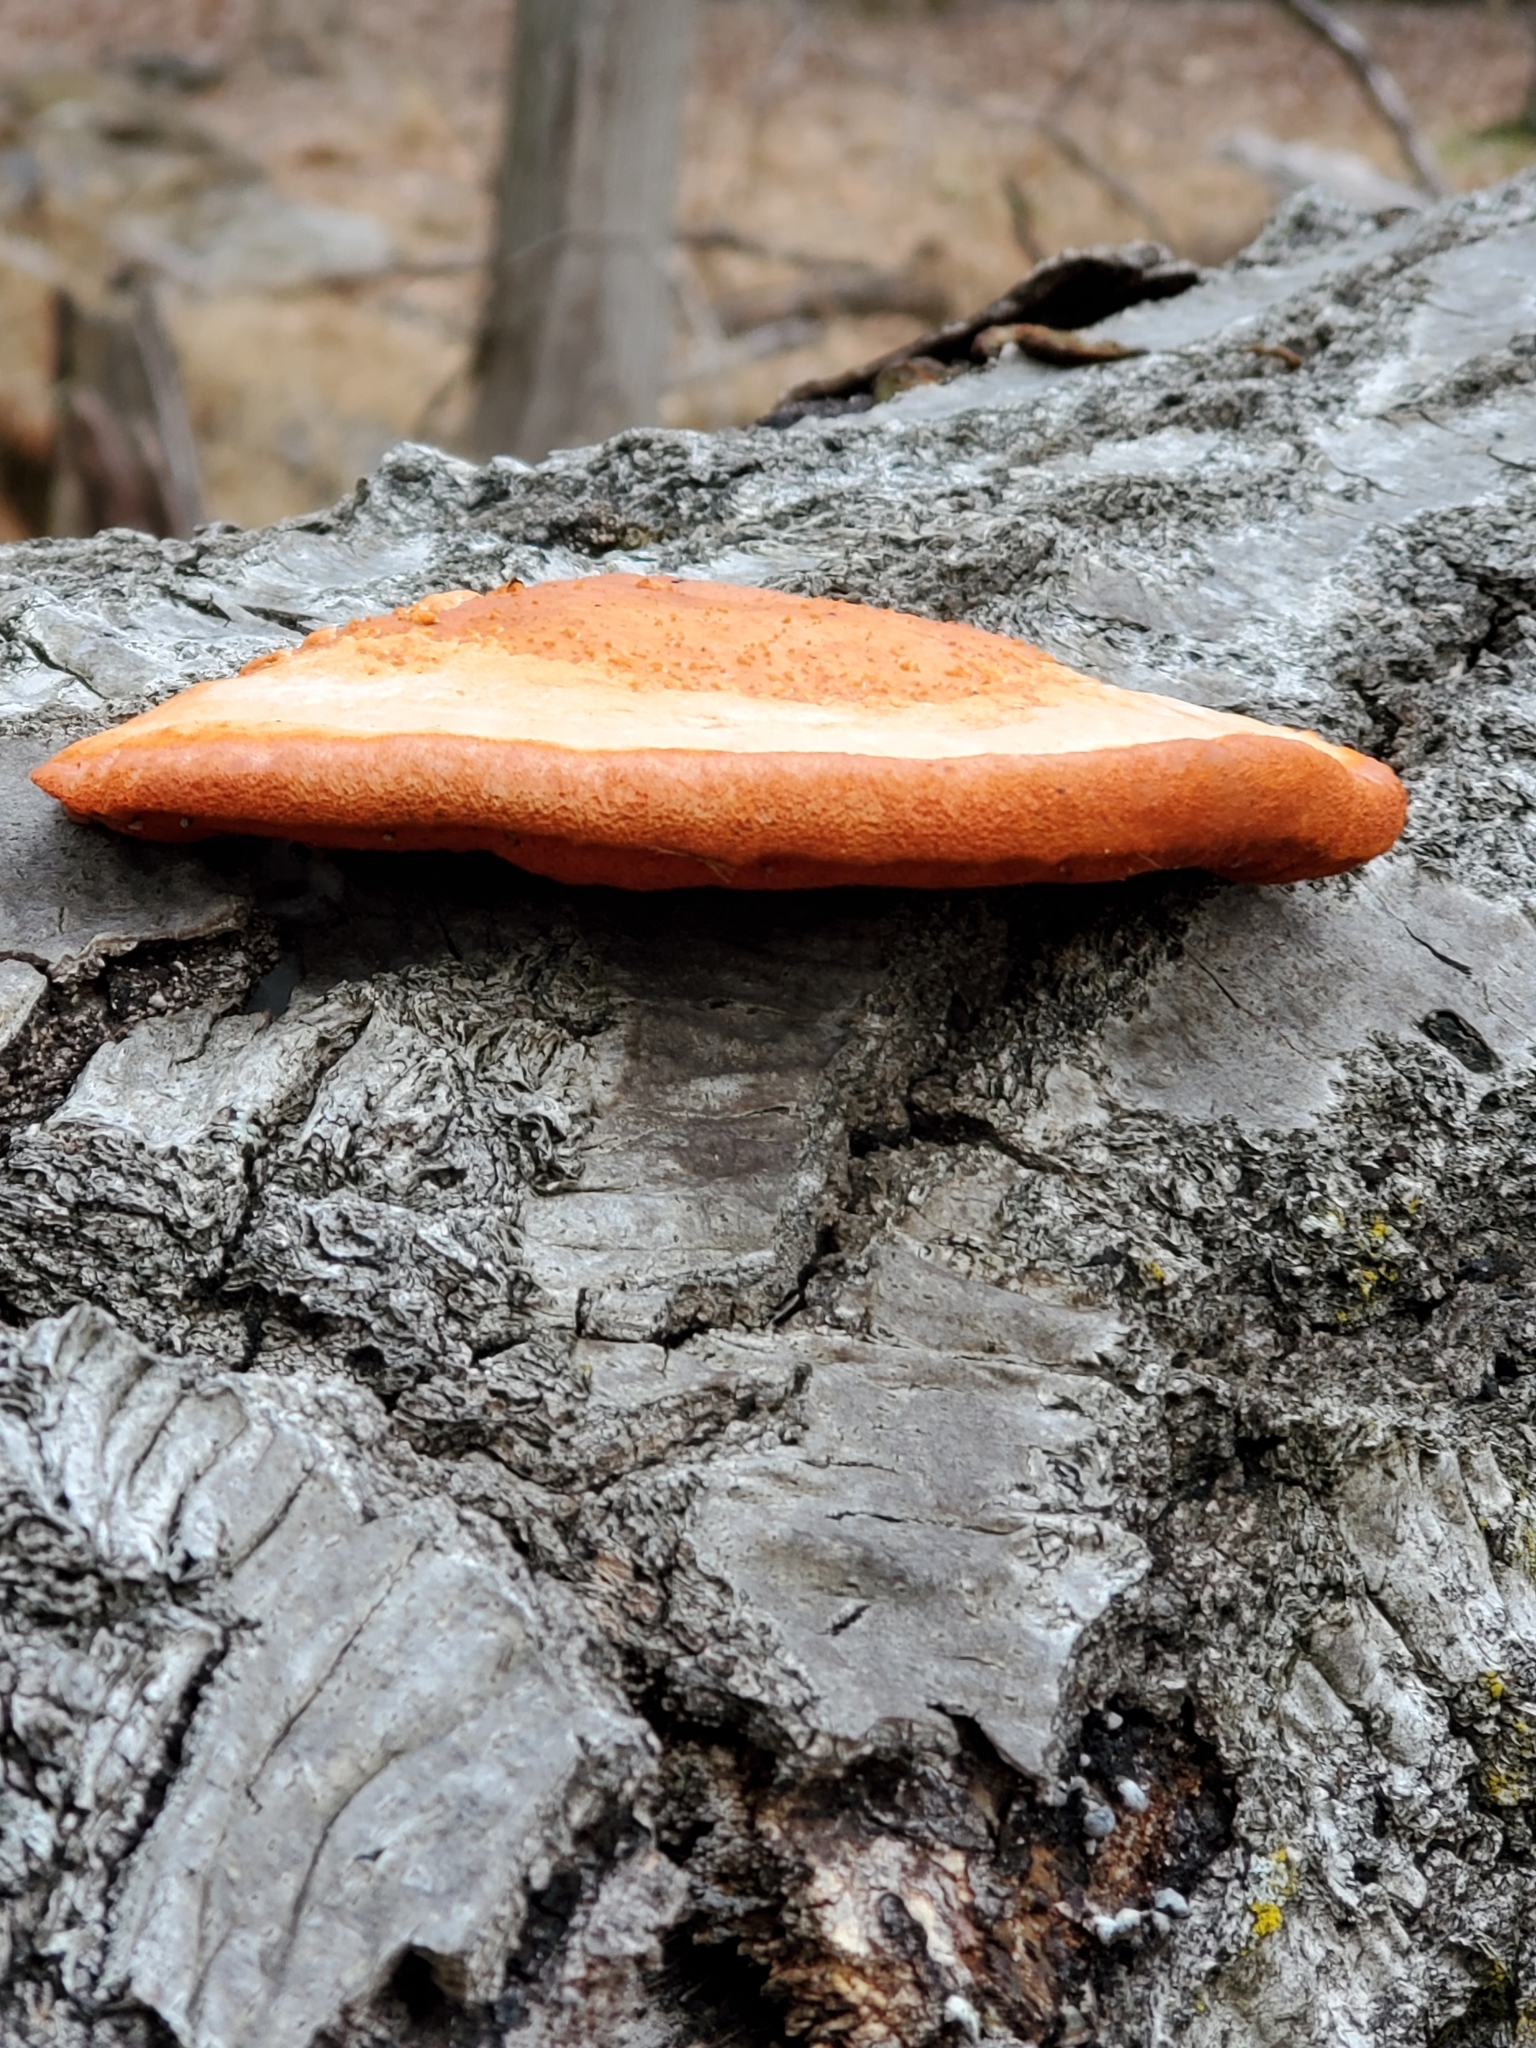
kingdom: Fungi
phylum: Basidiomycota
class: Agaricomycetes
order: Polyporales
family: Polyporaceae
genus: Trametes
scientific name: Trametes cinnabarina
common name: Northern cinnabar polypore
